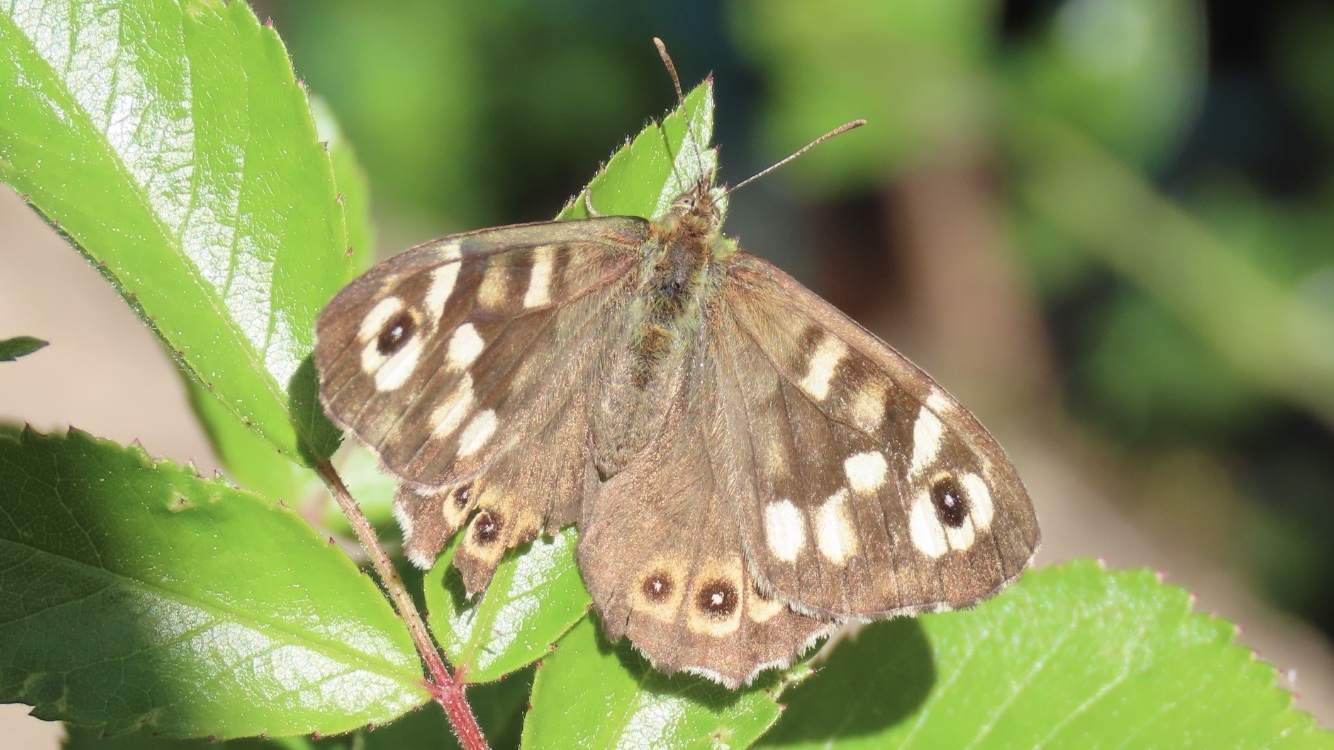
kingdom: Animalia
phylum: Arthropoda
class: Insecta
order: Lepidoptera
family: Nymphalidae
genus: Pararge
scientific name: Pararge aegeria
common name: Speckled wood
